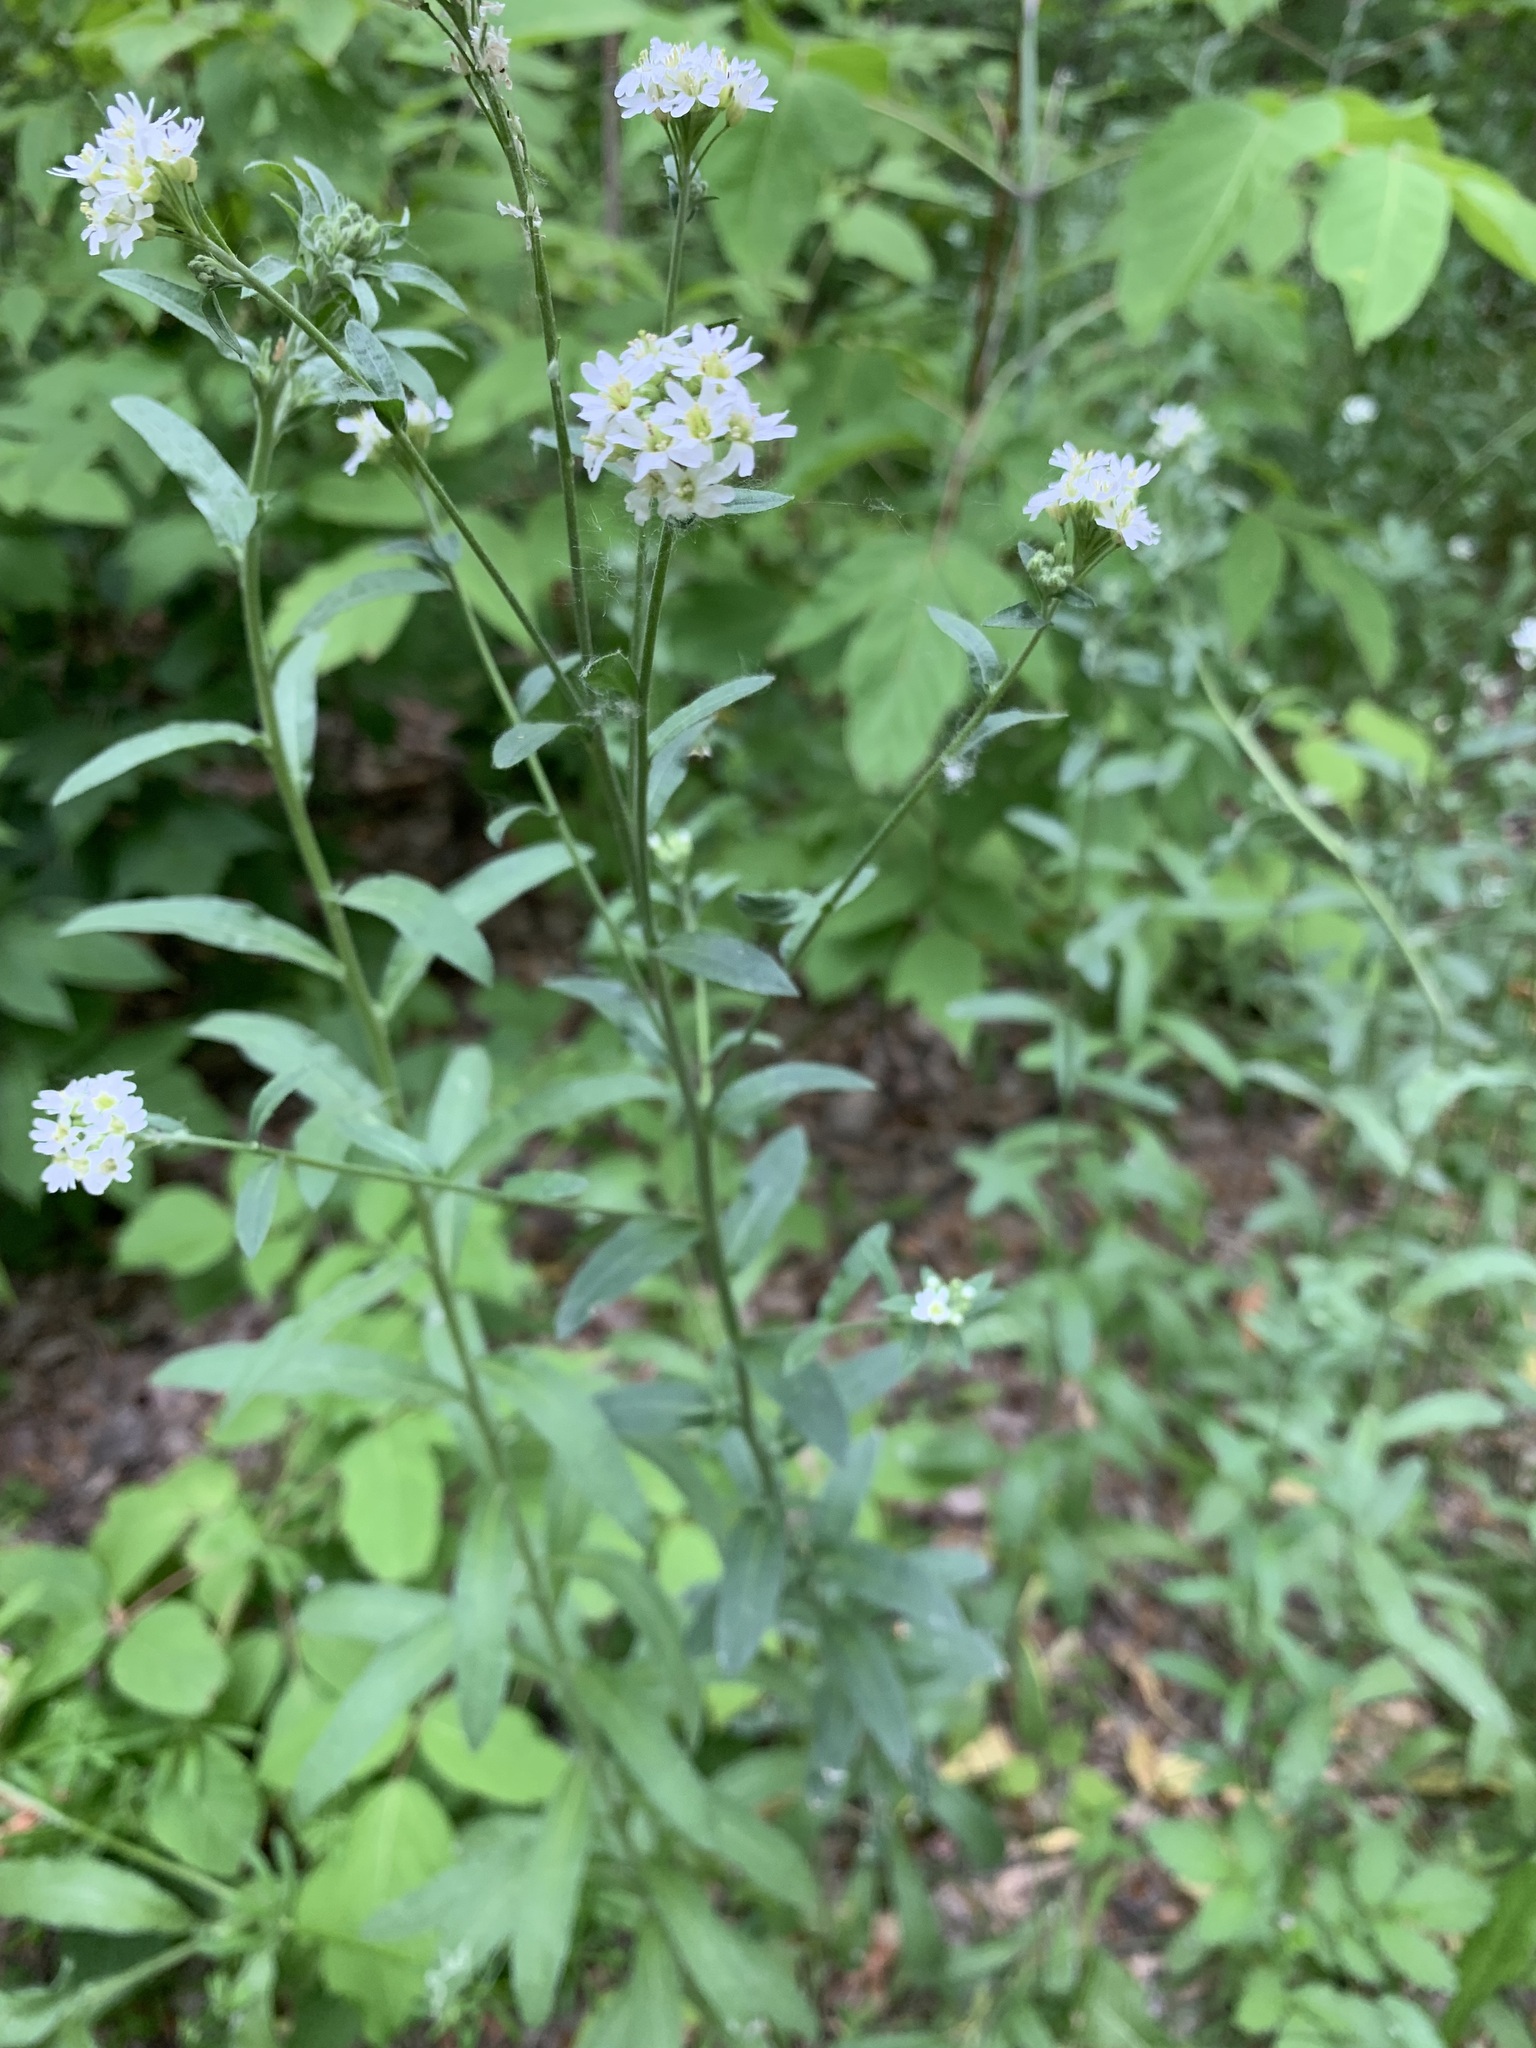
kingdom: Plantae
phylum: Tracheophyta
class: Magnoliopsida
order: Brassicales
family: Brassicaceae
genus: Berteroa
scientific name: Berteroa incana
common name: Hoary alison
